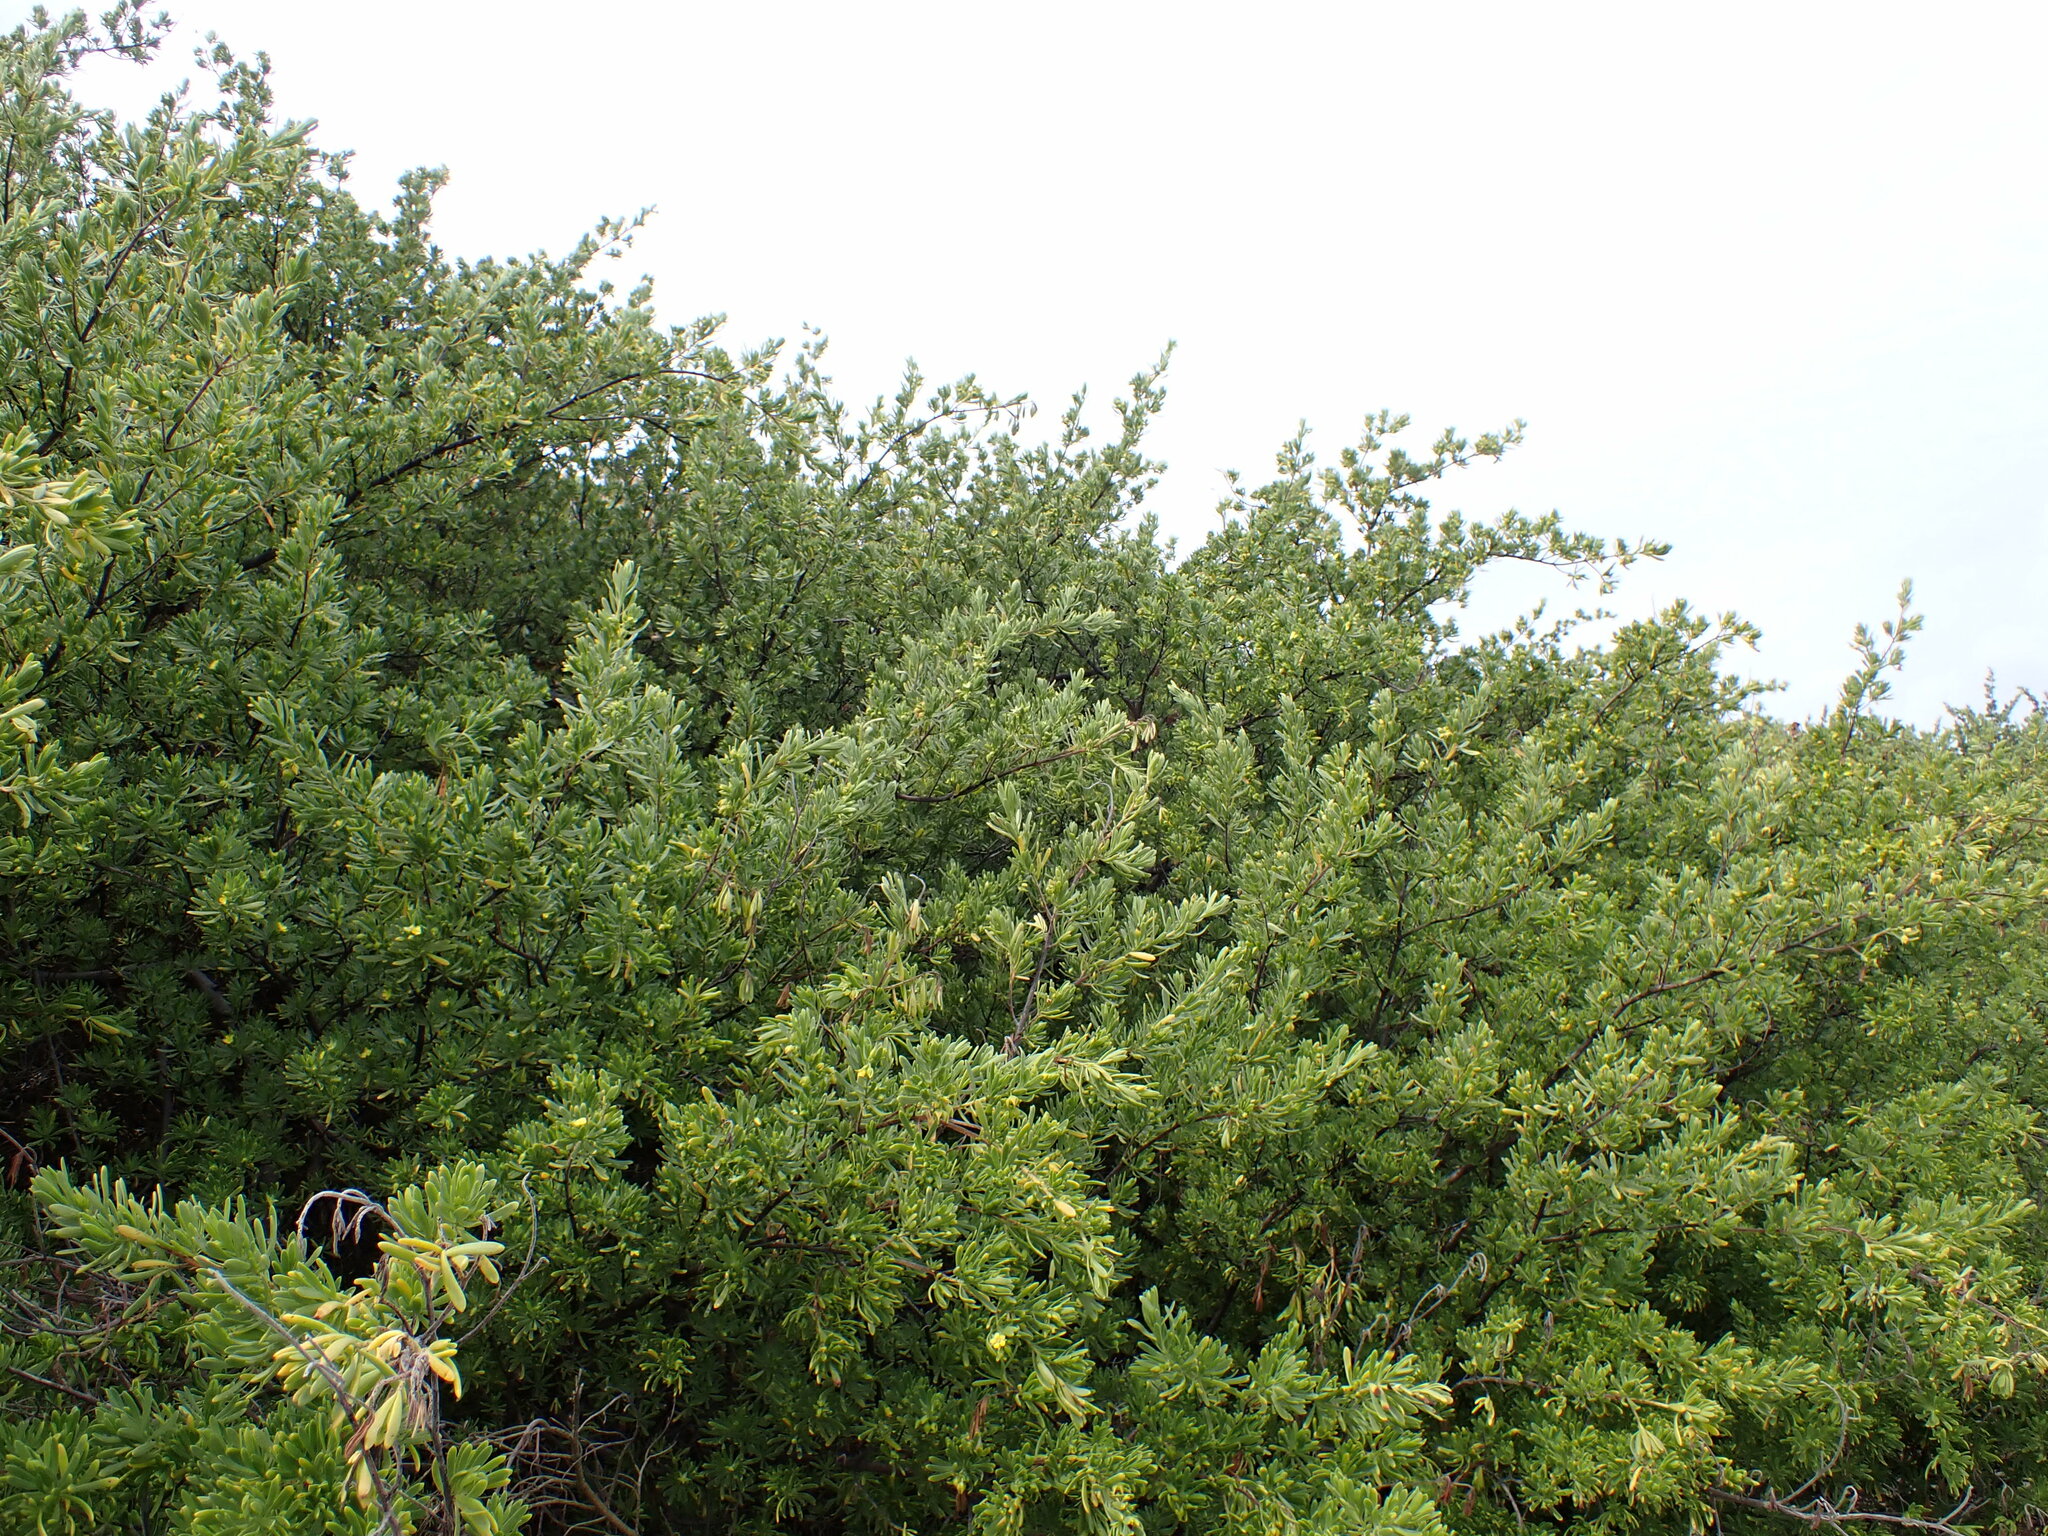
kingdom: Plantae
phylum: Tracheophyta
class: Magnoliopsida
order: Fabales
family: Surianaceae
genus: Suriana
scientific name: Suriana maritima
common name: Bay-cedar
